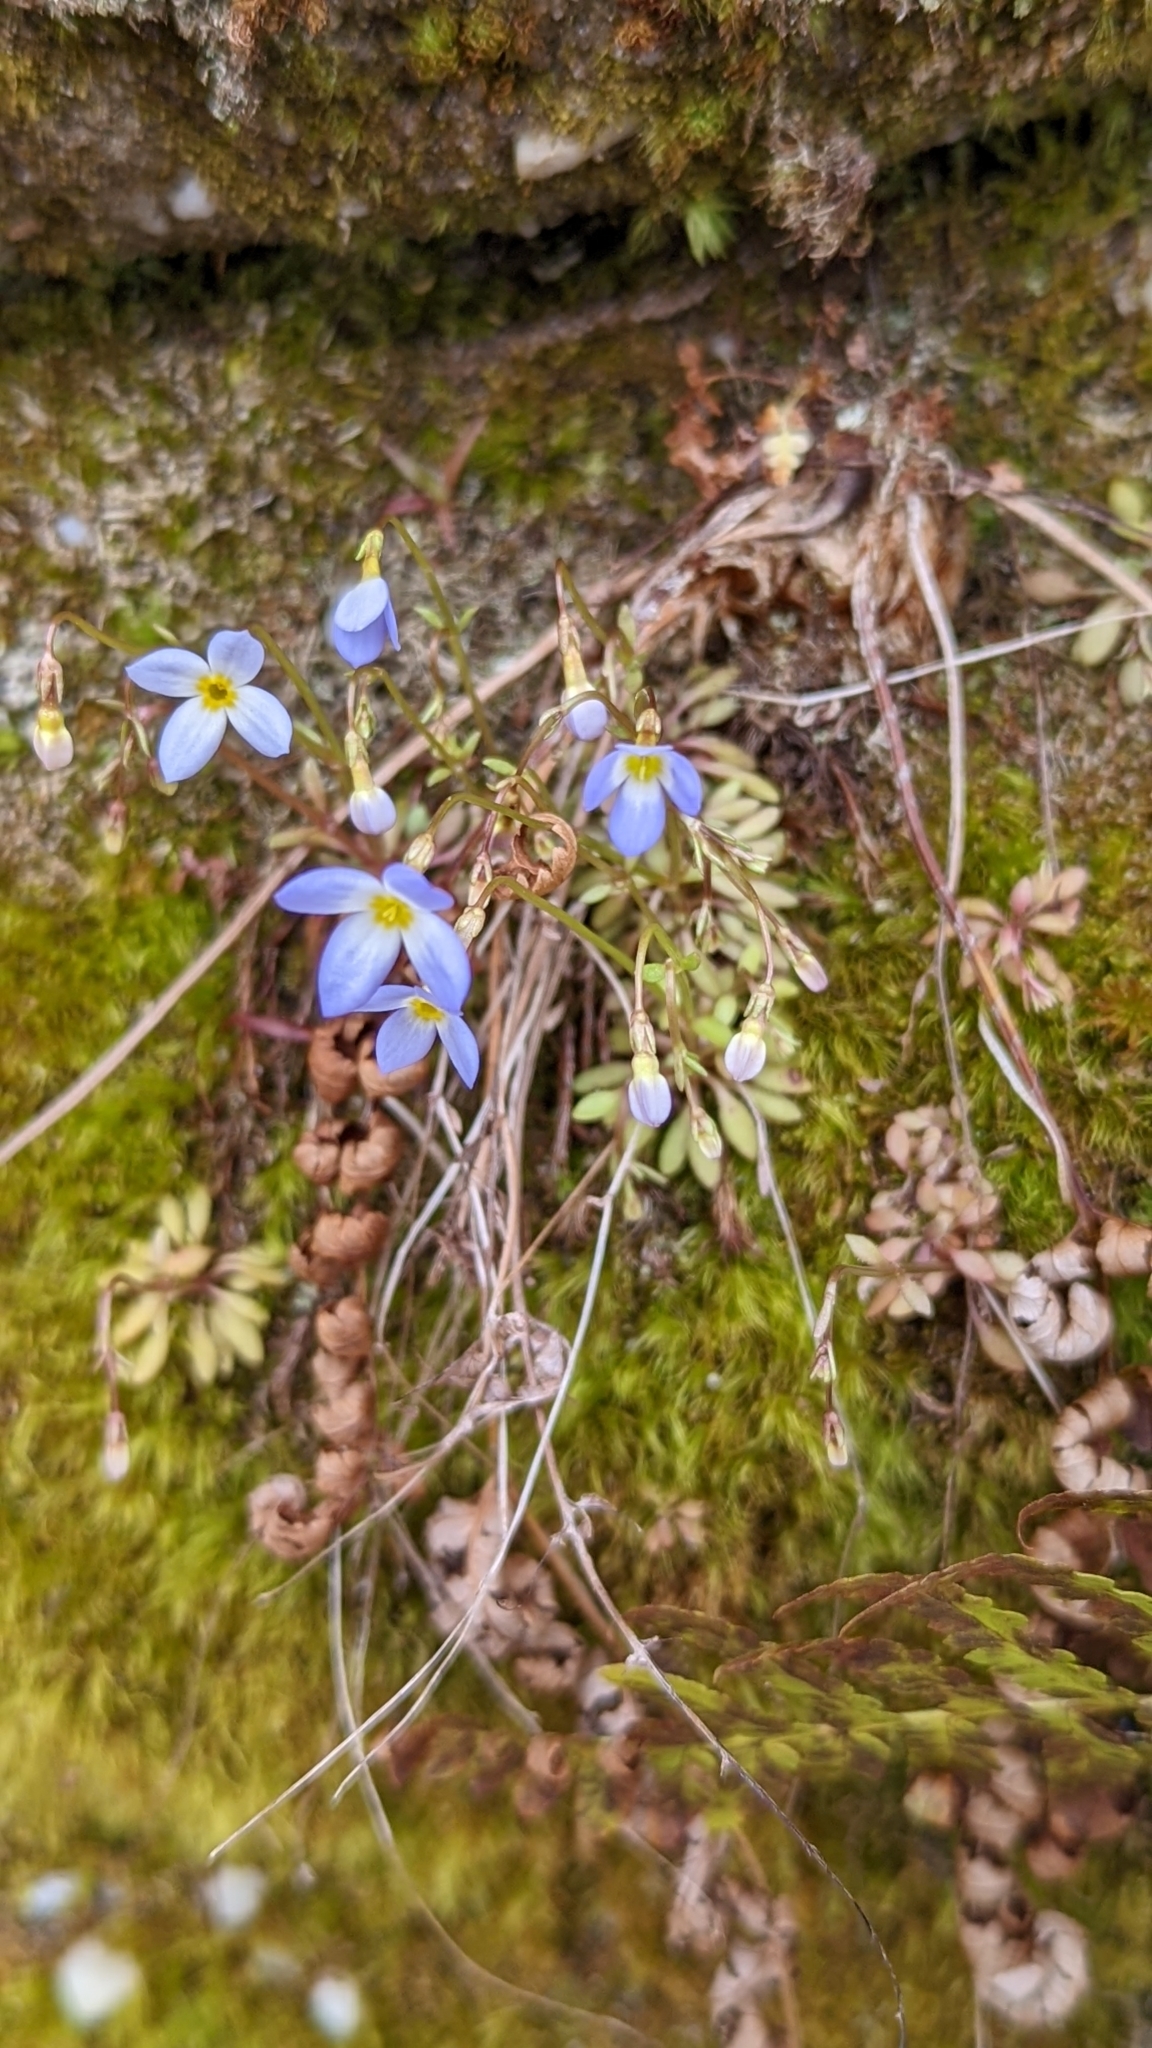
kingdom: Plantae
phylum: Tracheophyta
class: Magnoliopsida
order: Gentianales
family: Rubiaceae
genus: Houstonia
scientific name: Houstonia caerulea
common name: Bluets
